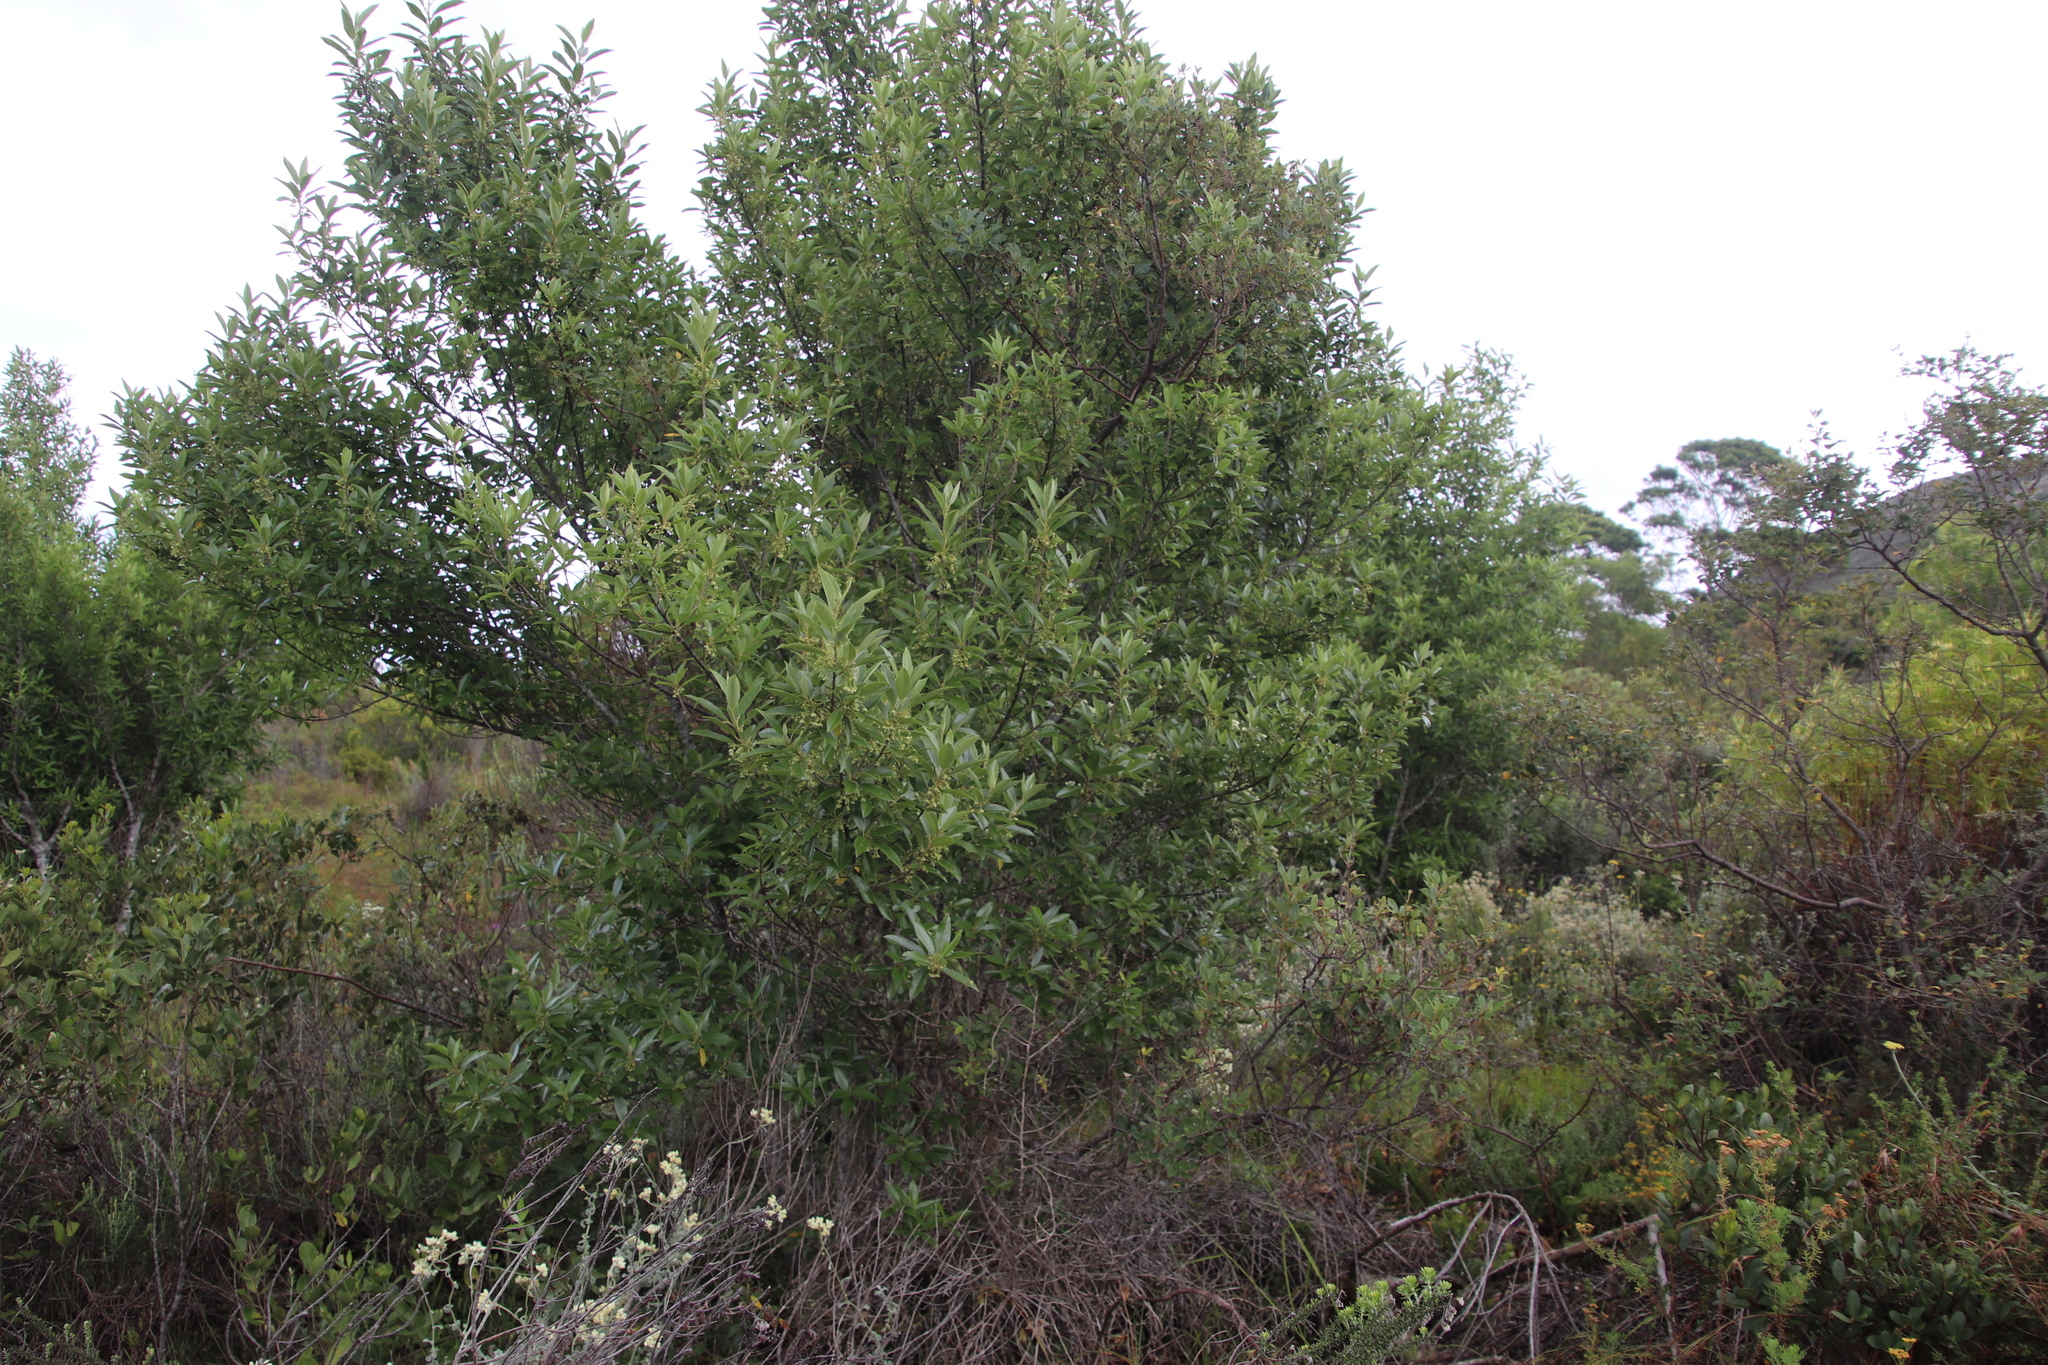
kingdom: Plantae
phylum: Tracheophyta
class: Magnoliopsida
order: Malpighiales
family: Achariaceae
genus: Kiggelaria
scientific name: Kiggelaria africana
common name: Wild peach
